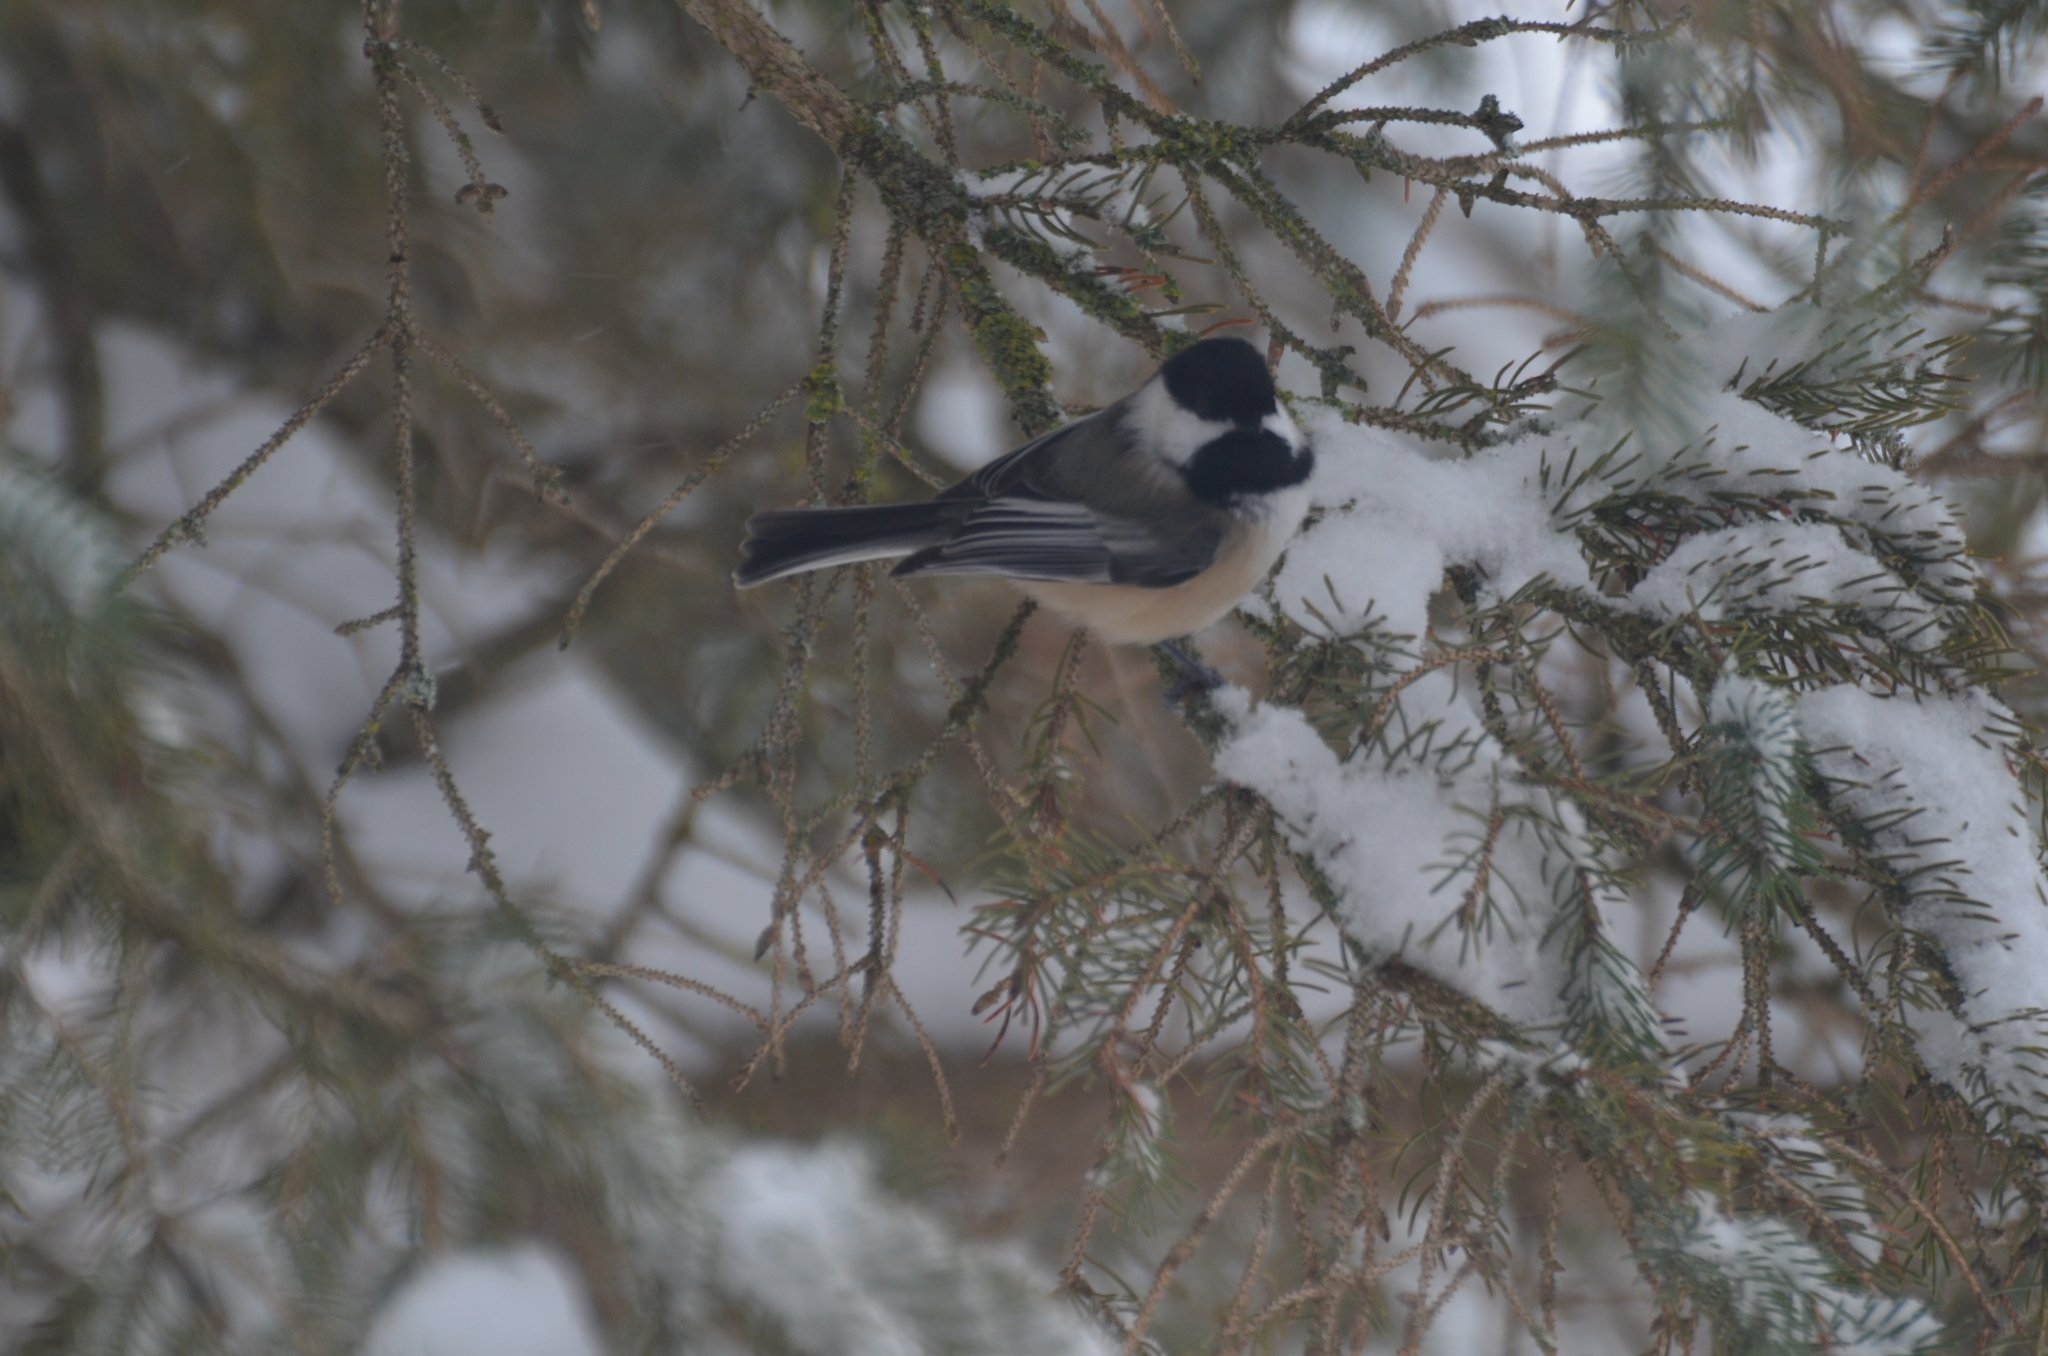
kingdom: Animalia
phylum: Chordata
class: Aves
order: Passeriformes
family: Paridae
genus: Poecile
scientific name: Poecile atricapillus
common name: Black-capped chickadee
